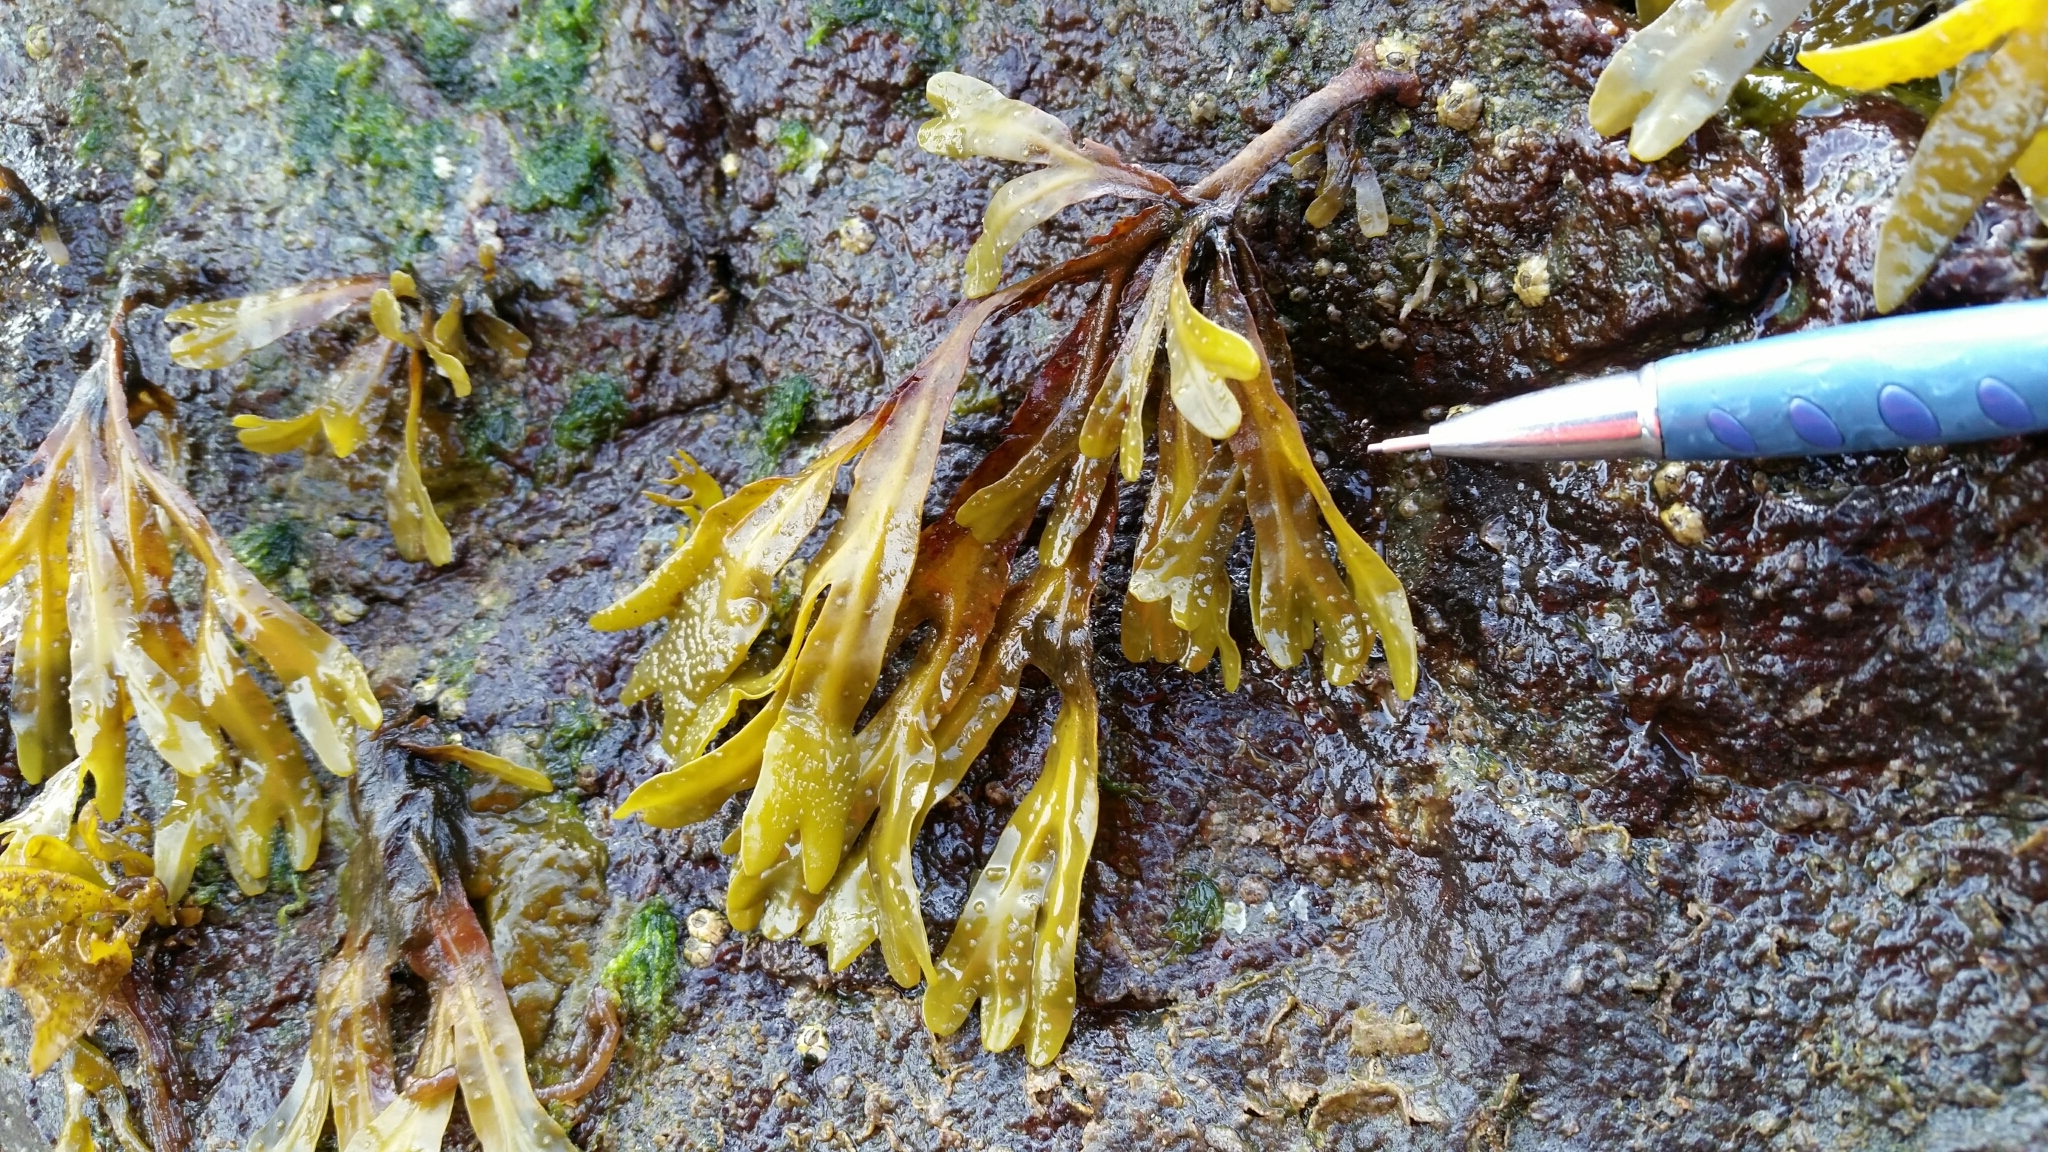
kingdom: Chromista
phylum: Ochrophyta
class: Phaeophyceae
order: Fucales
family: Fucaceae
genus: Fucus
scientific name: Fucus distichus
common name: Rockweed
